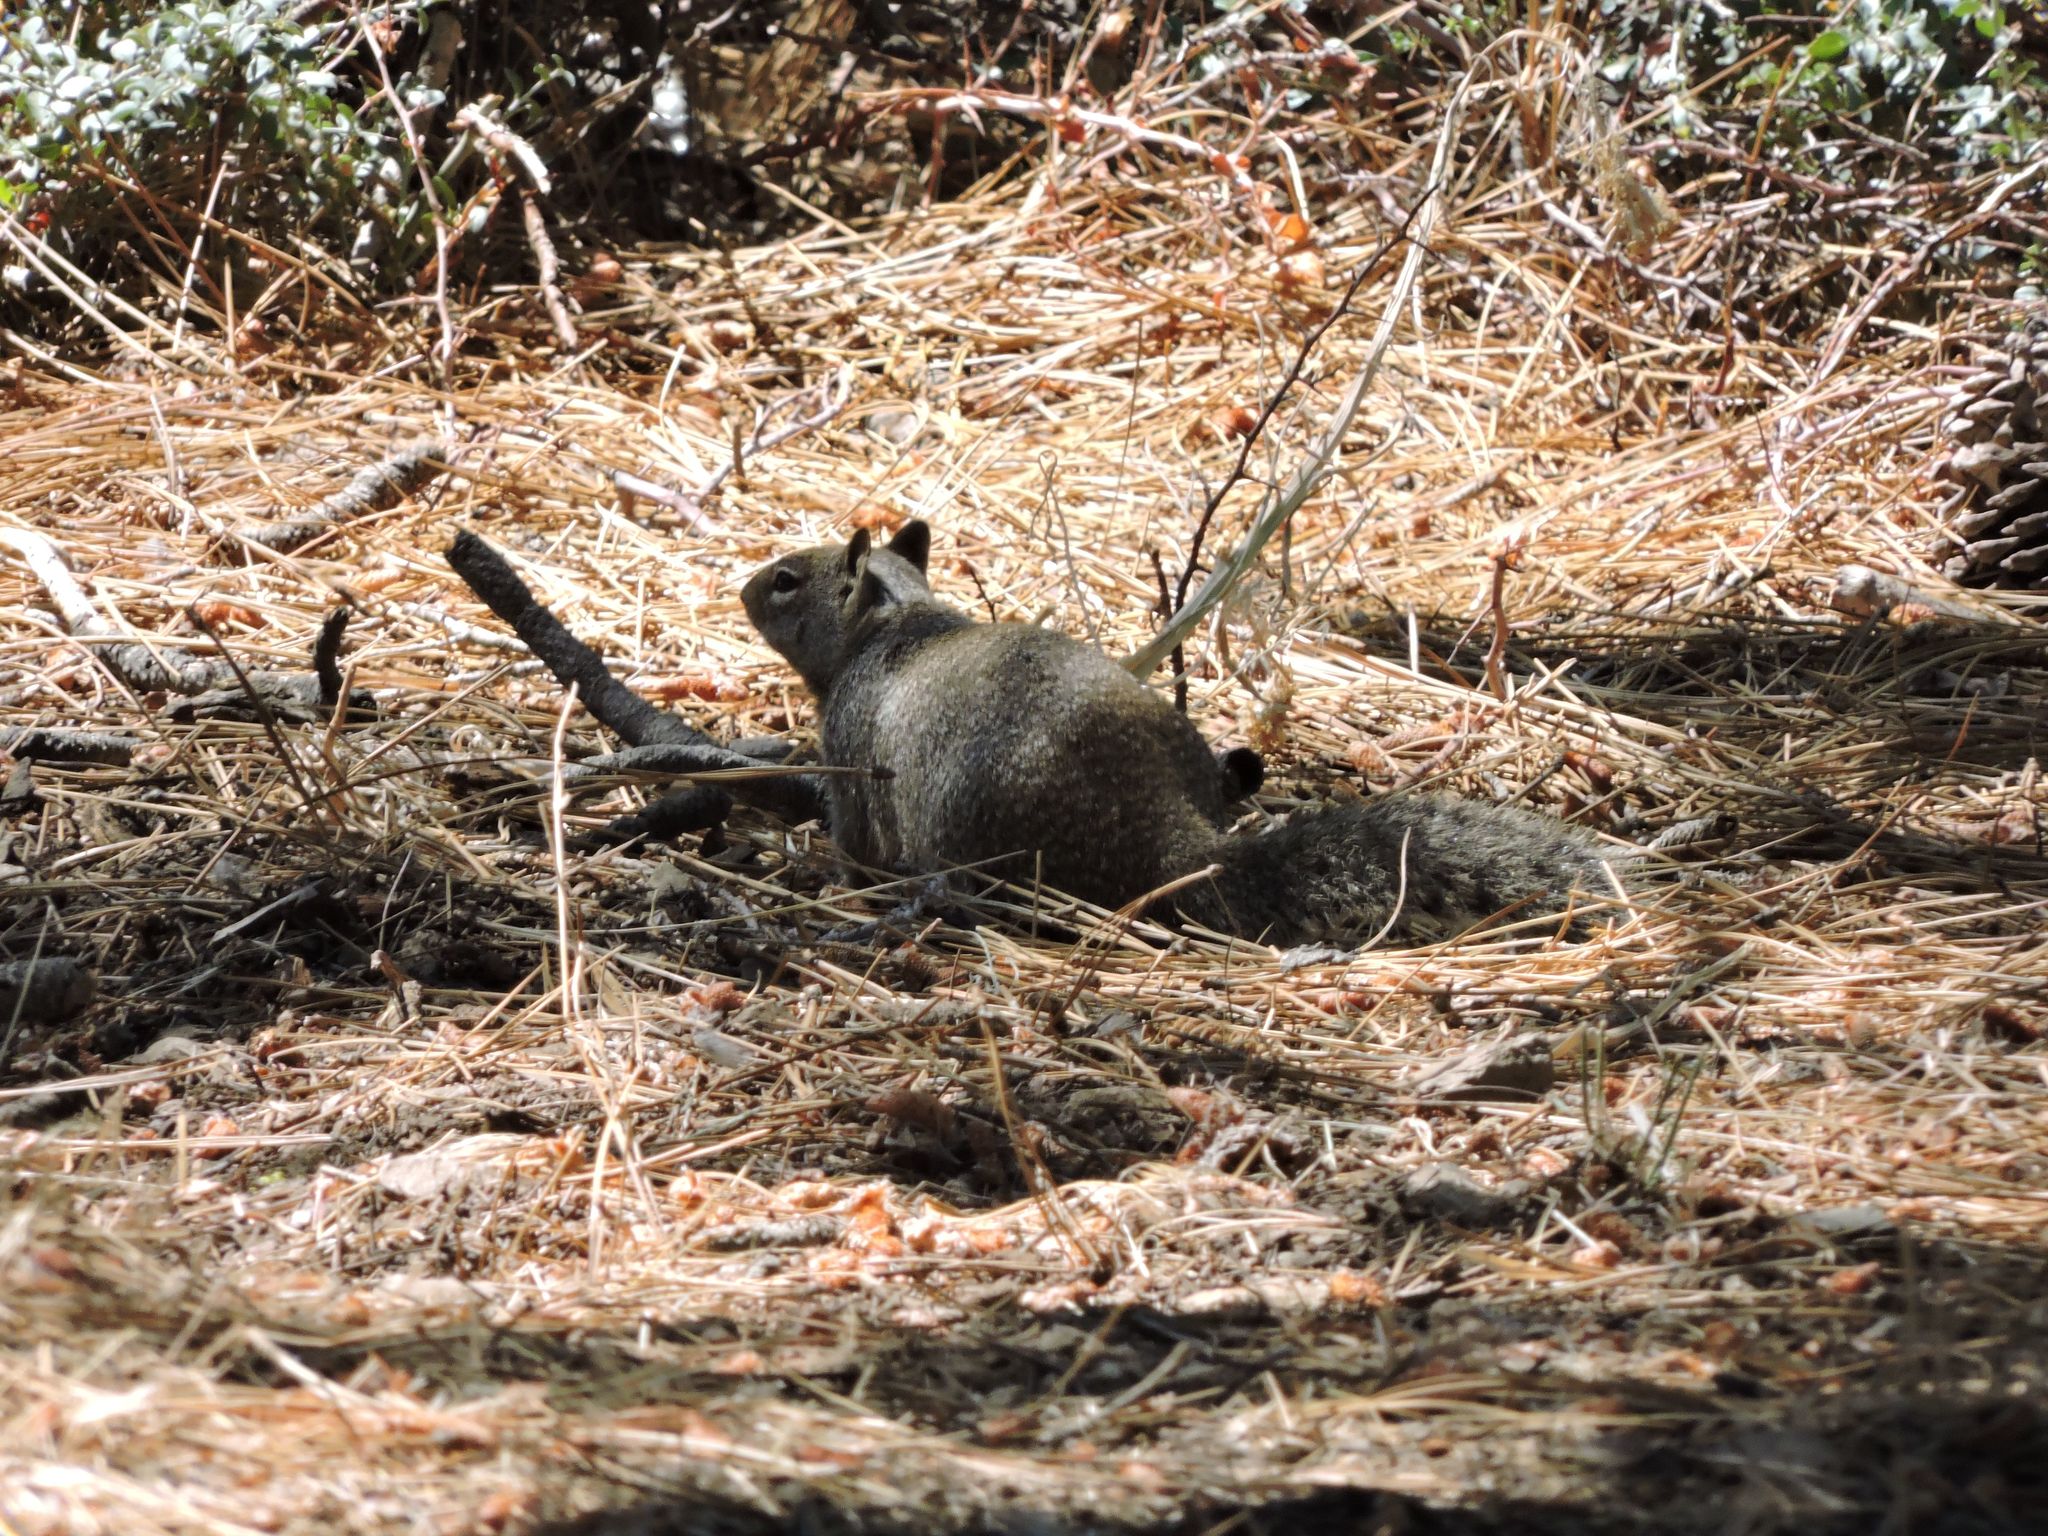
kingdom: Animalia
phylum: Chordata
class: Mammalia
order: Rodentia
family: Sciuridae
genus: Otospermophilus
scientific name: Otospermophilus beecheyi
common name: California ground squirrel
